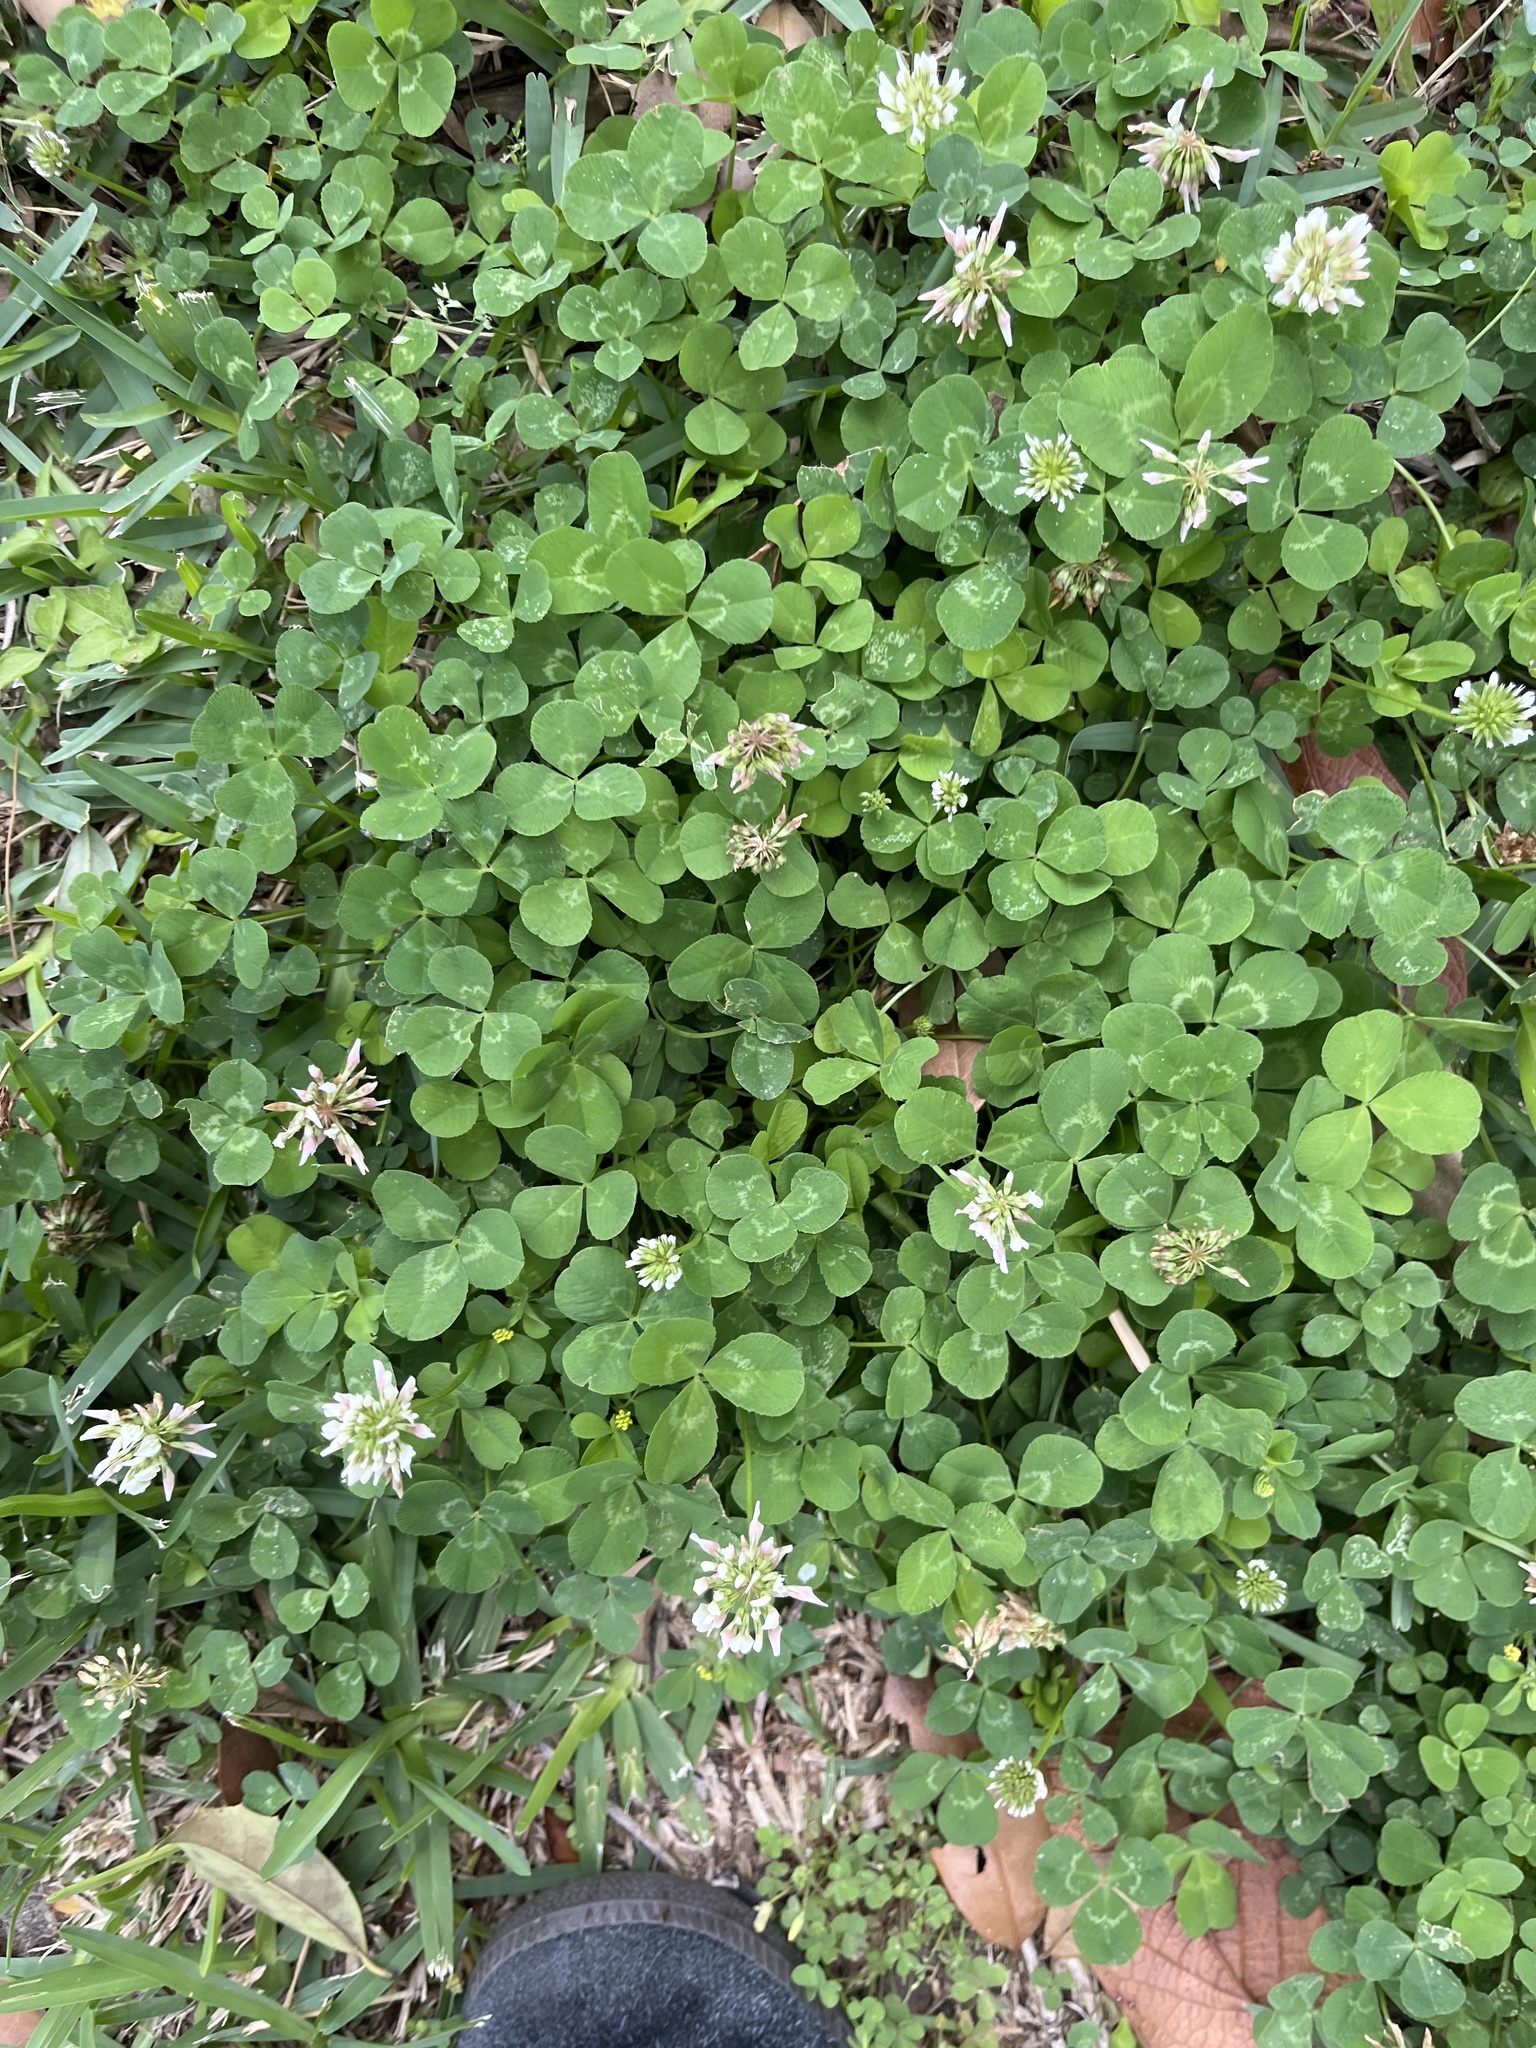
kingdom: Plantae
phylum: Tracheophyta
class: Magnoliopsida
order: Fabales
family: Fabaceae
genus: Trifolium
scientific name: Trifolium repens
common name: White clover
